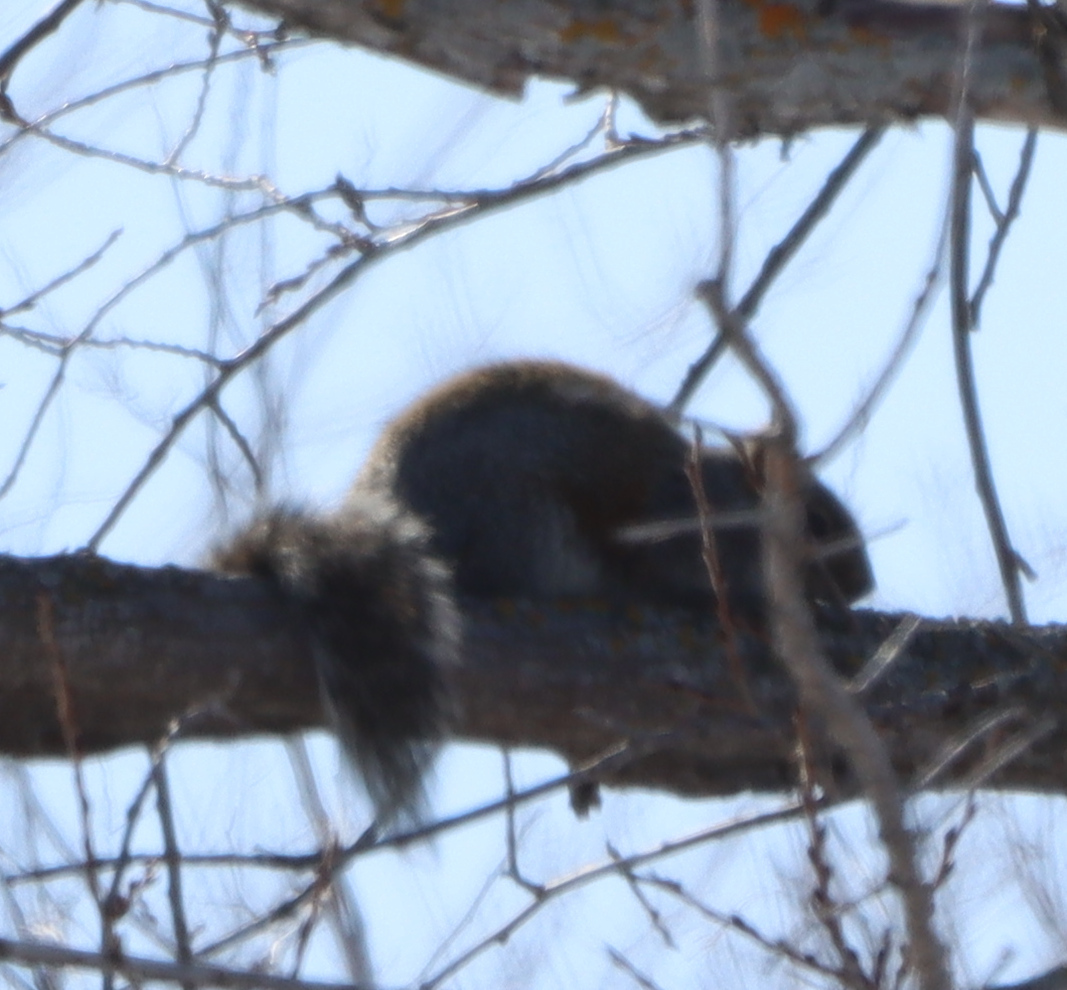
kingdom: Animalia
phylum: Chordata
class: Mammalia
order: Rodentia
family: Sciuridae
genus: Sciurus
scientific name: Sciurus carolinensis
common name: Eastern gray squirrel
